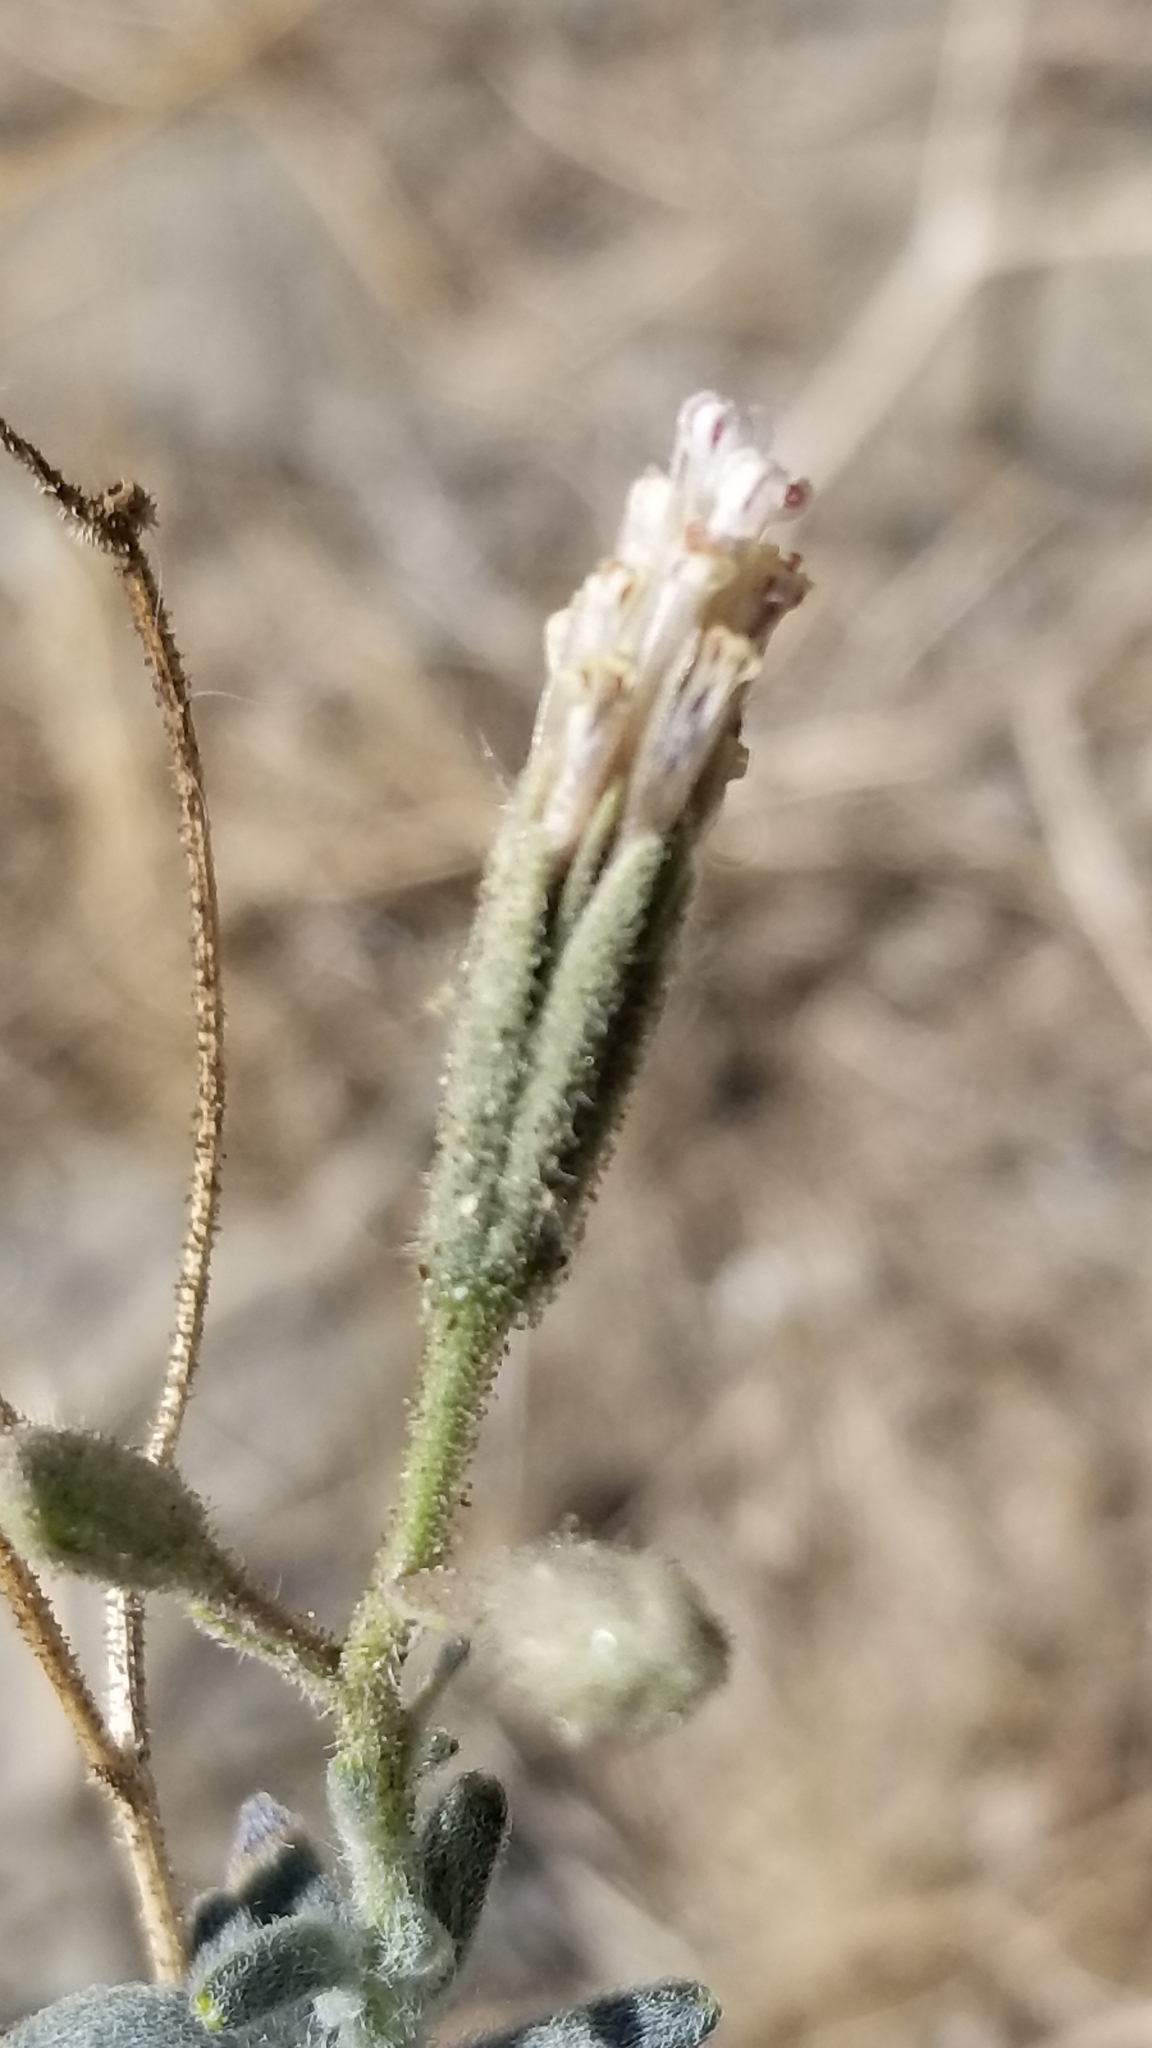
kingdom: Plantae
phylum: Tracheophyta
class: Magnoliopsida
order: Asterales
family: Asteraceae
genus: Palafoxia
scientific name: Palafoxia arida
